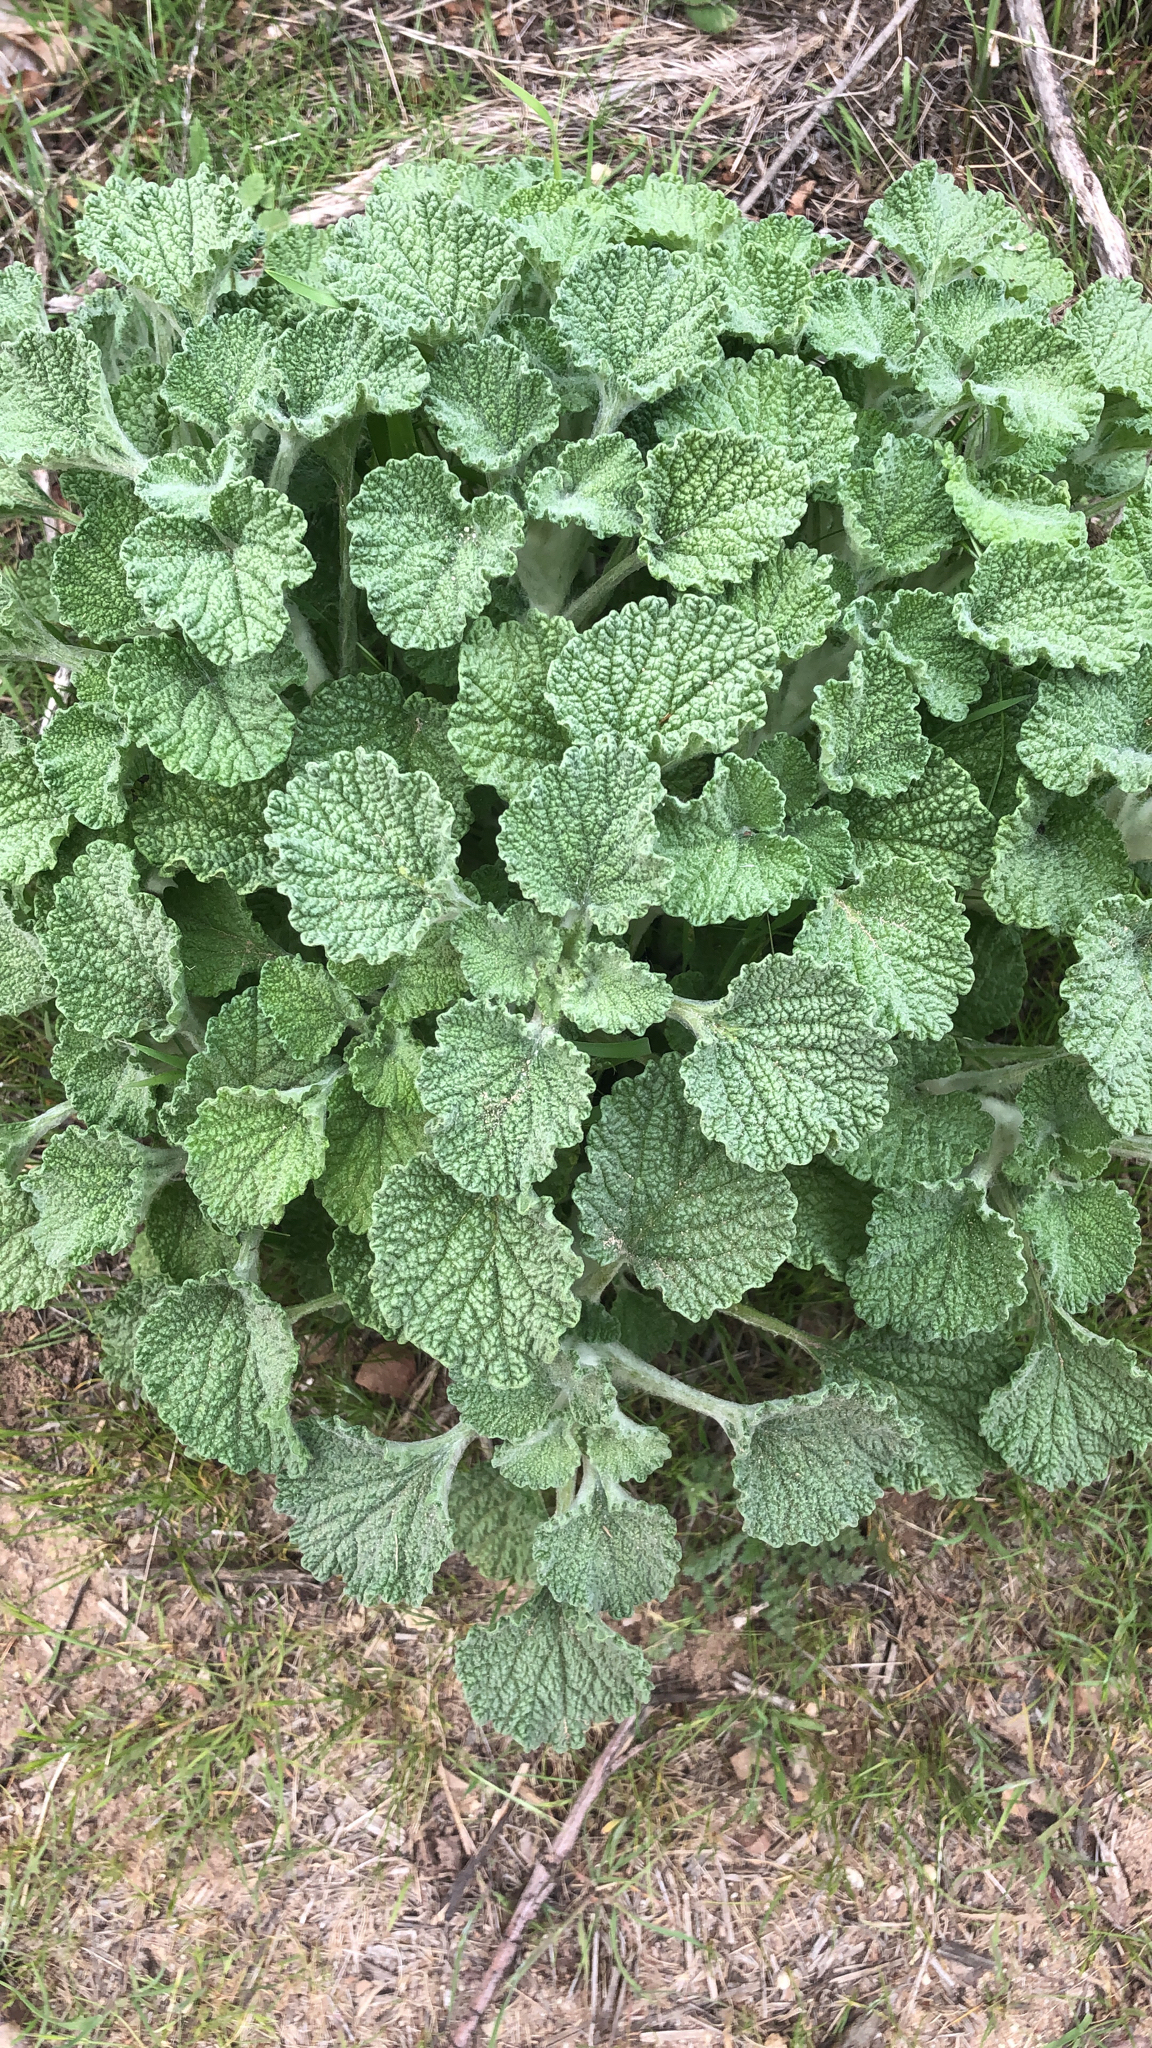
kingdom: Plantae
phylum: Tracheophyta
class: Magnoliopsida
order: Lamiales
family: Lamiaceae
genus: Marrubium
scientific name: Marrubium vulgare
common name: Horehound
